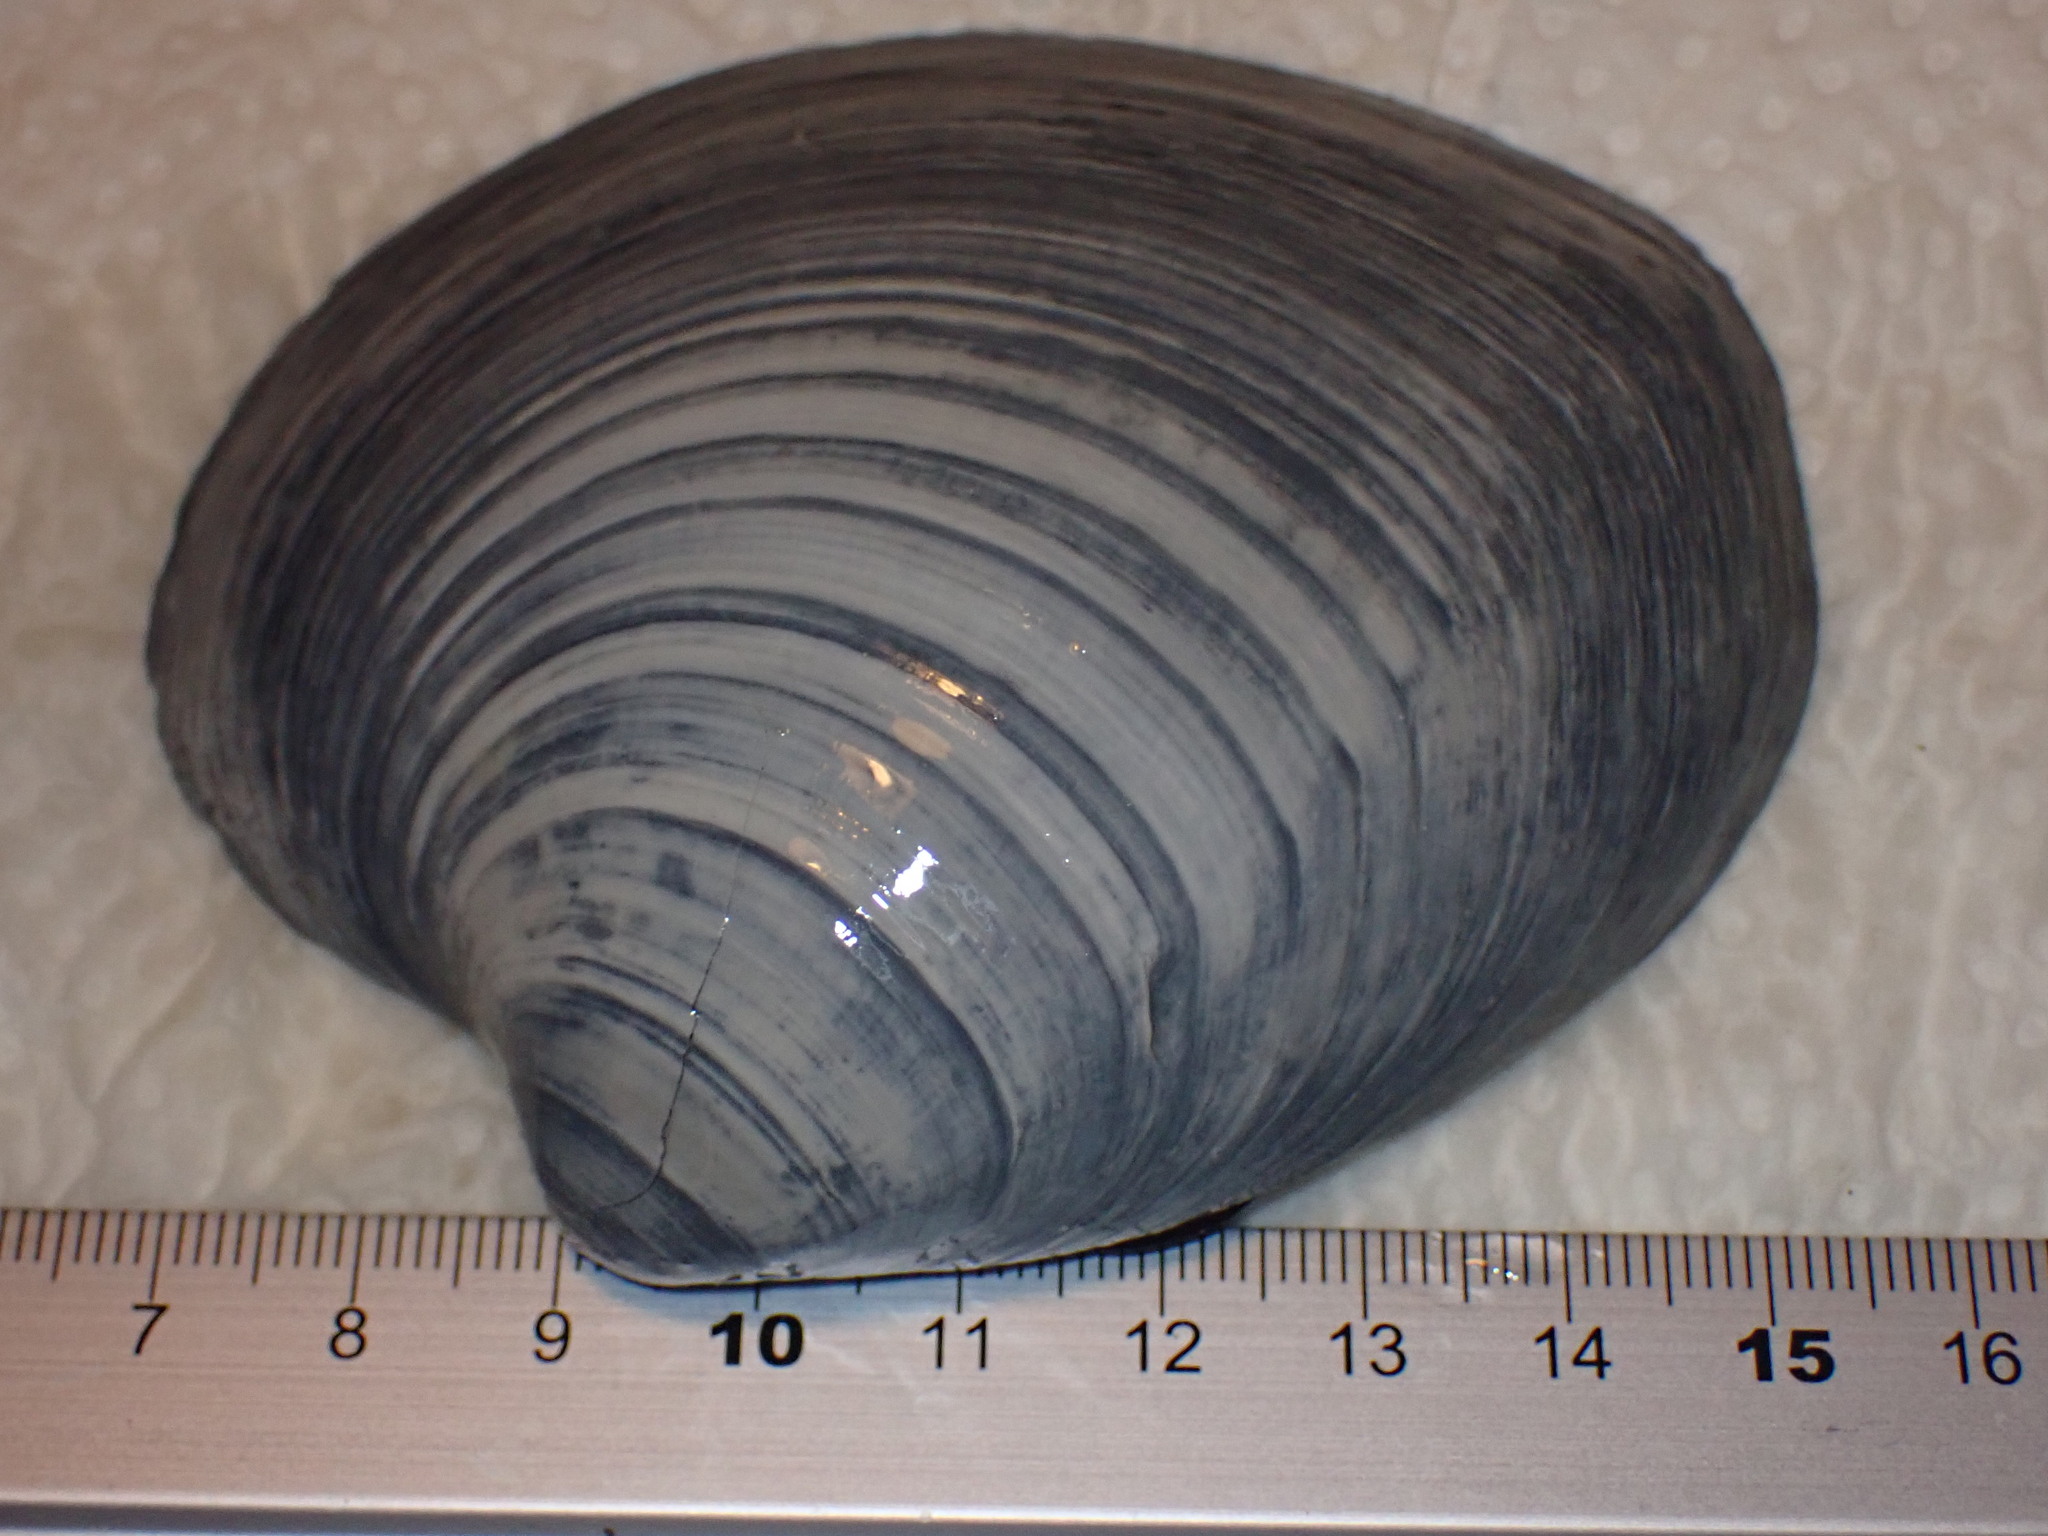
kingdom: Animalia
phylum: Mollusca
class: Bivalvia
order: Venerida
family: Arcticidae
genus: Arctica
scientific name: Arctica islandica
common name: Icelandic cyprine
